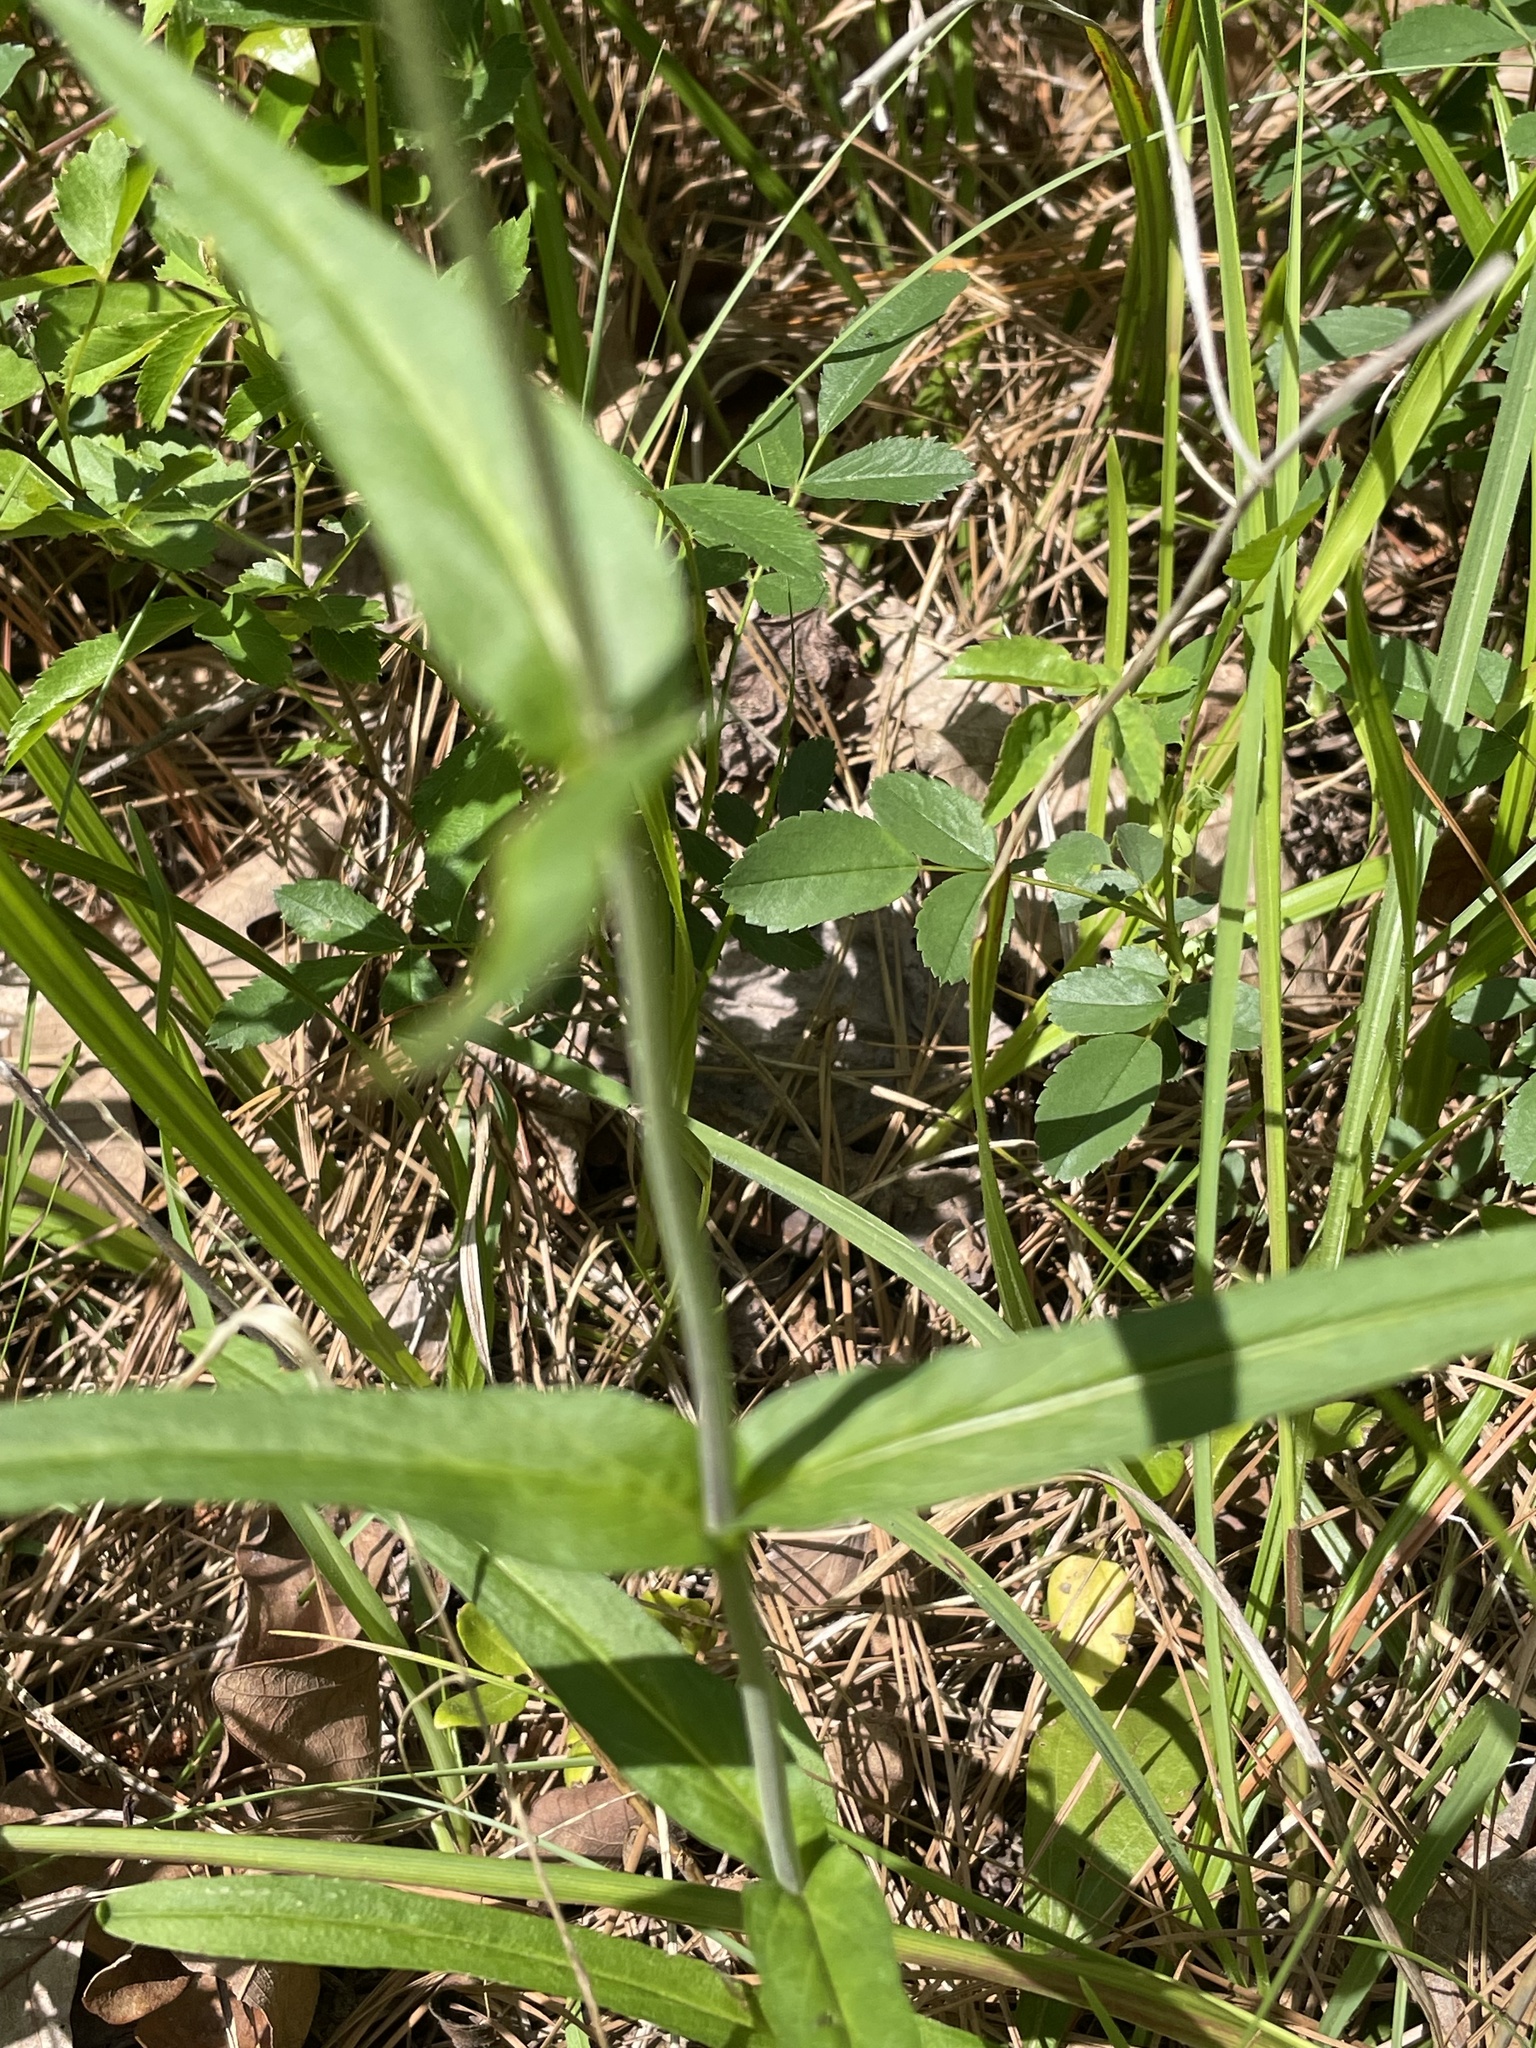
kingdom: Plantae
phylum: Tracheophyta
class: Magnoliopsida
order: Lamiales
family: Plantaginaceae
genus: Penstemon
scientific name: Penstemon laevigatus
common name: Eastern beardtongue
